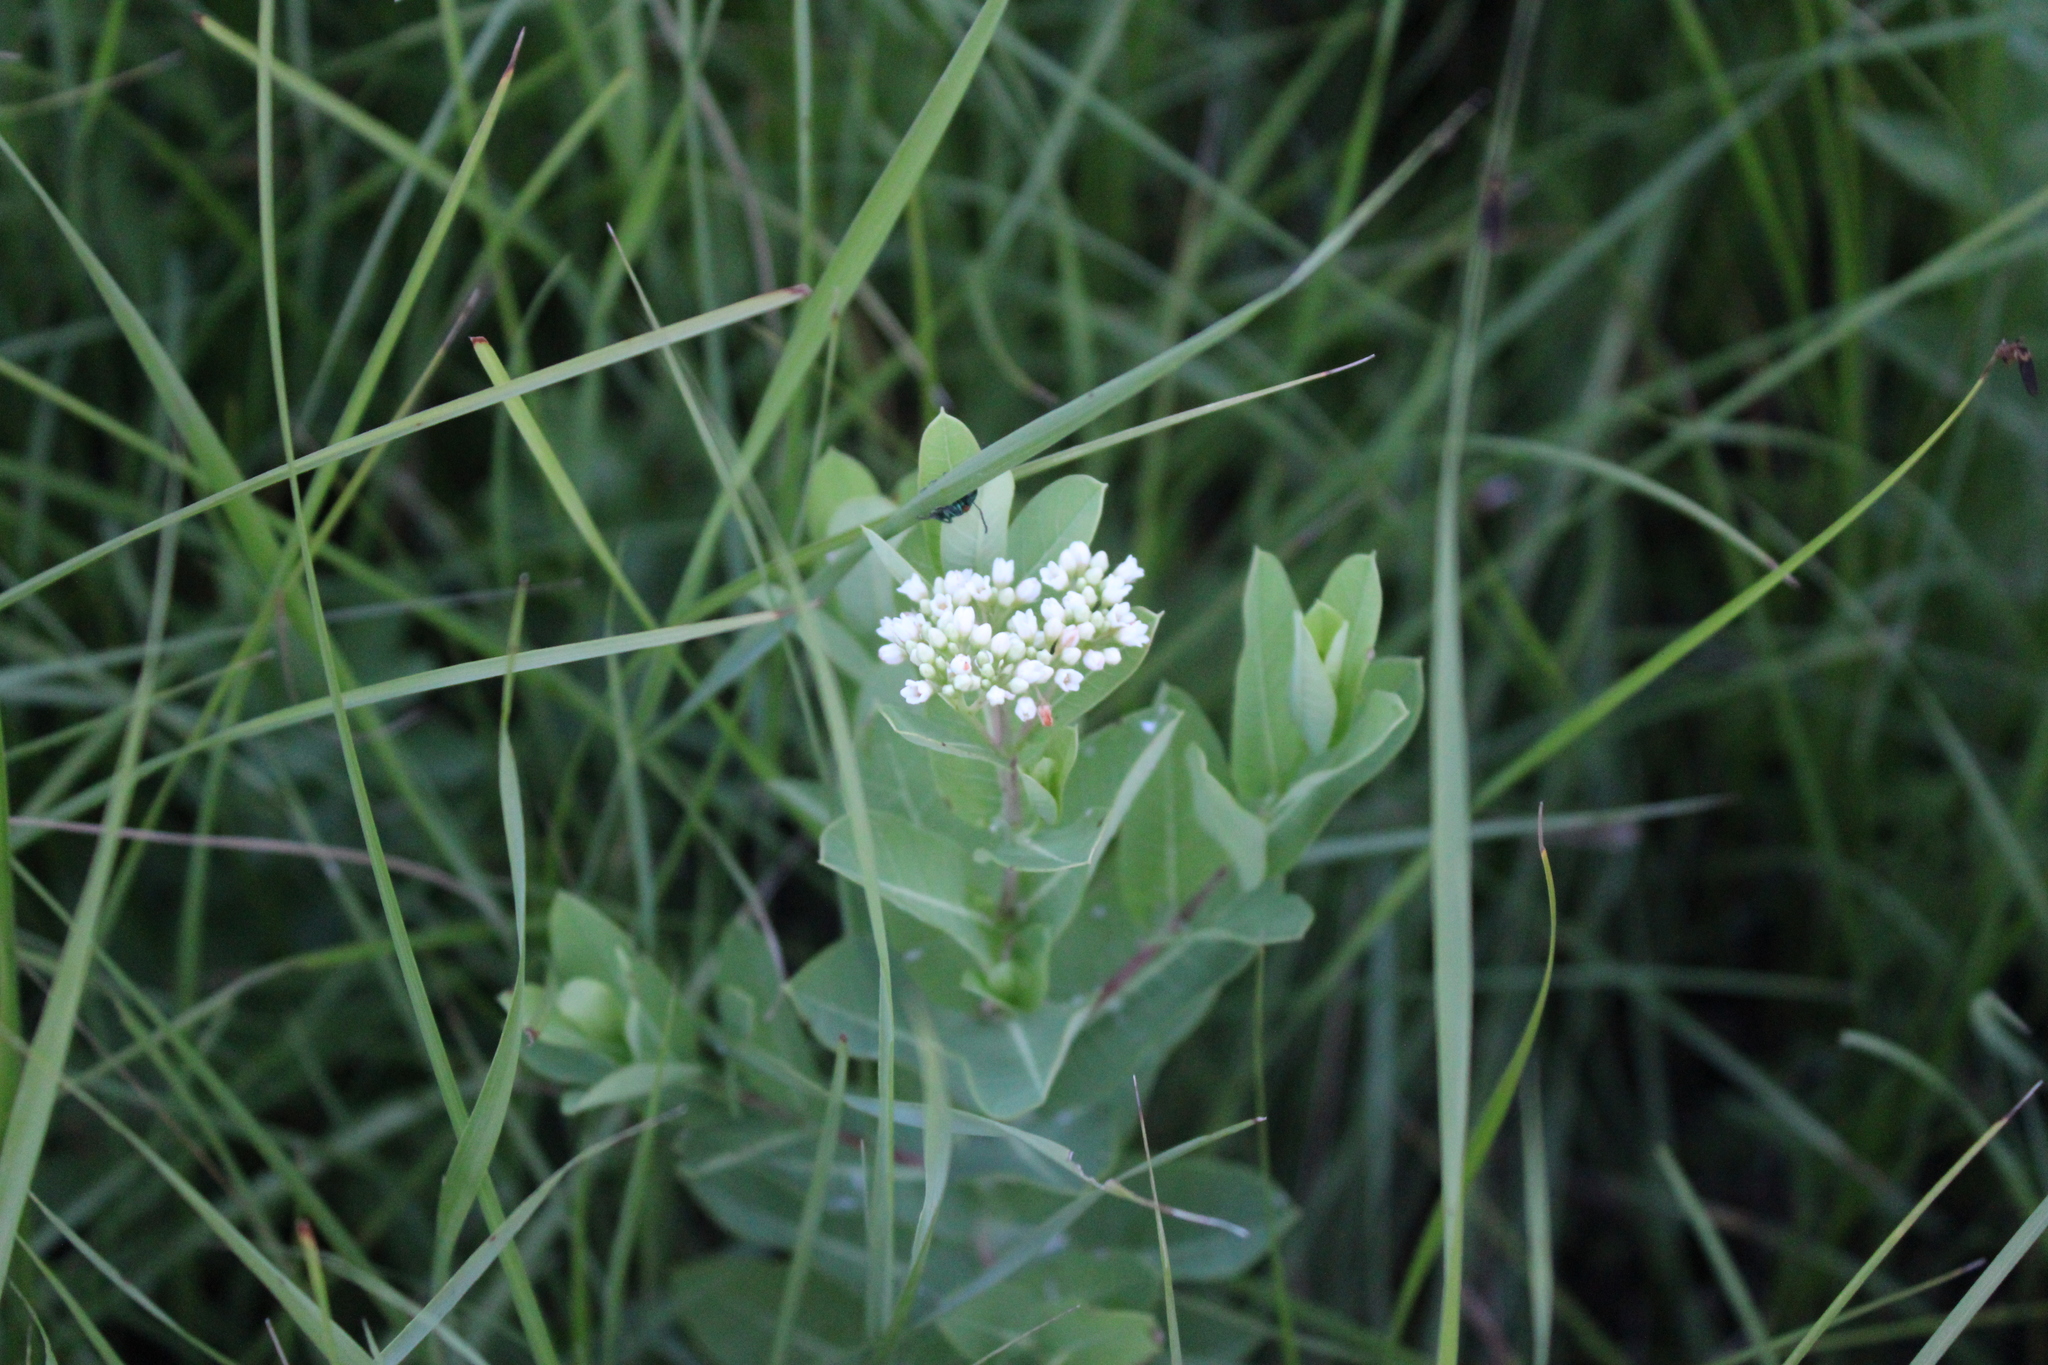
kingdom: Plantae
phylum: Tracheophyta
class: Magnoliopsida
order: Gentianales
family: Apocynaceae
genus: Apocynum
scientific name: Apocynum cannabinum
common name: Hemp dogbane
